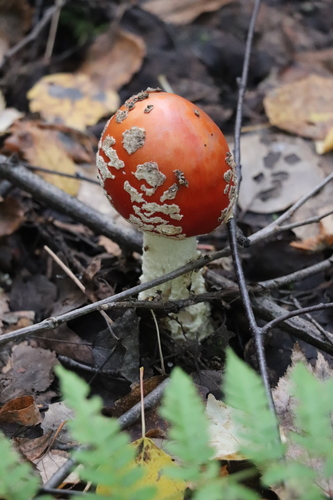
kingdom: Fungi
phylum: Basidiomycota
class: Agaricomycetes
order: Agaricales
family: Amanitaceae
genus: Amanita
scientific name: Amanita muscaria
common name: Fly agaric
